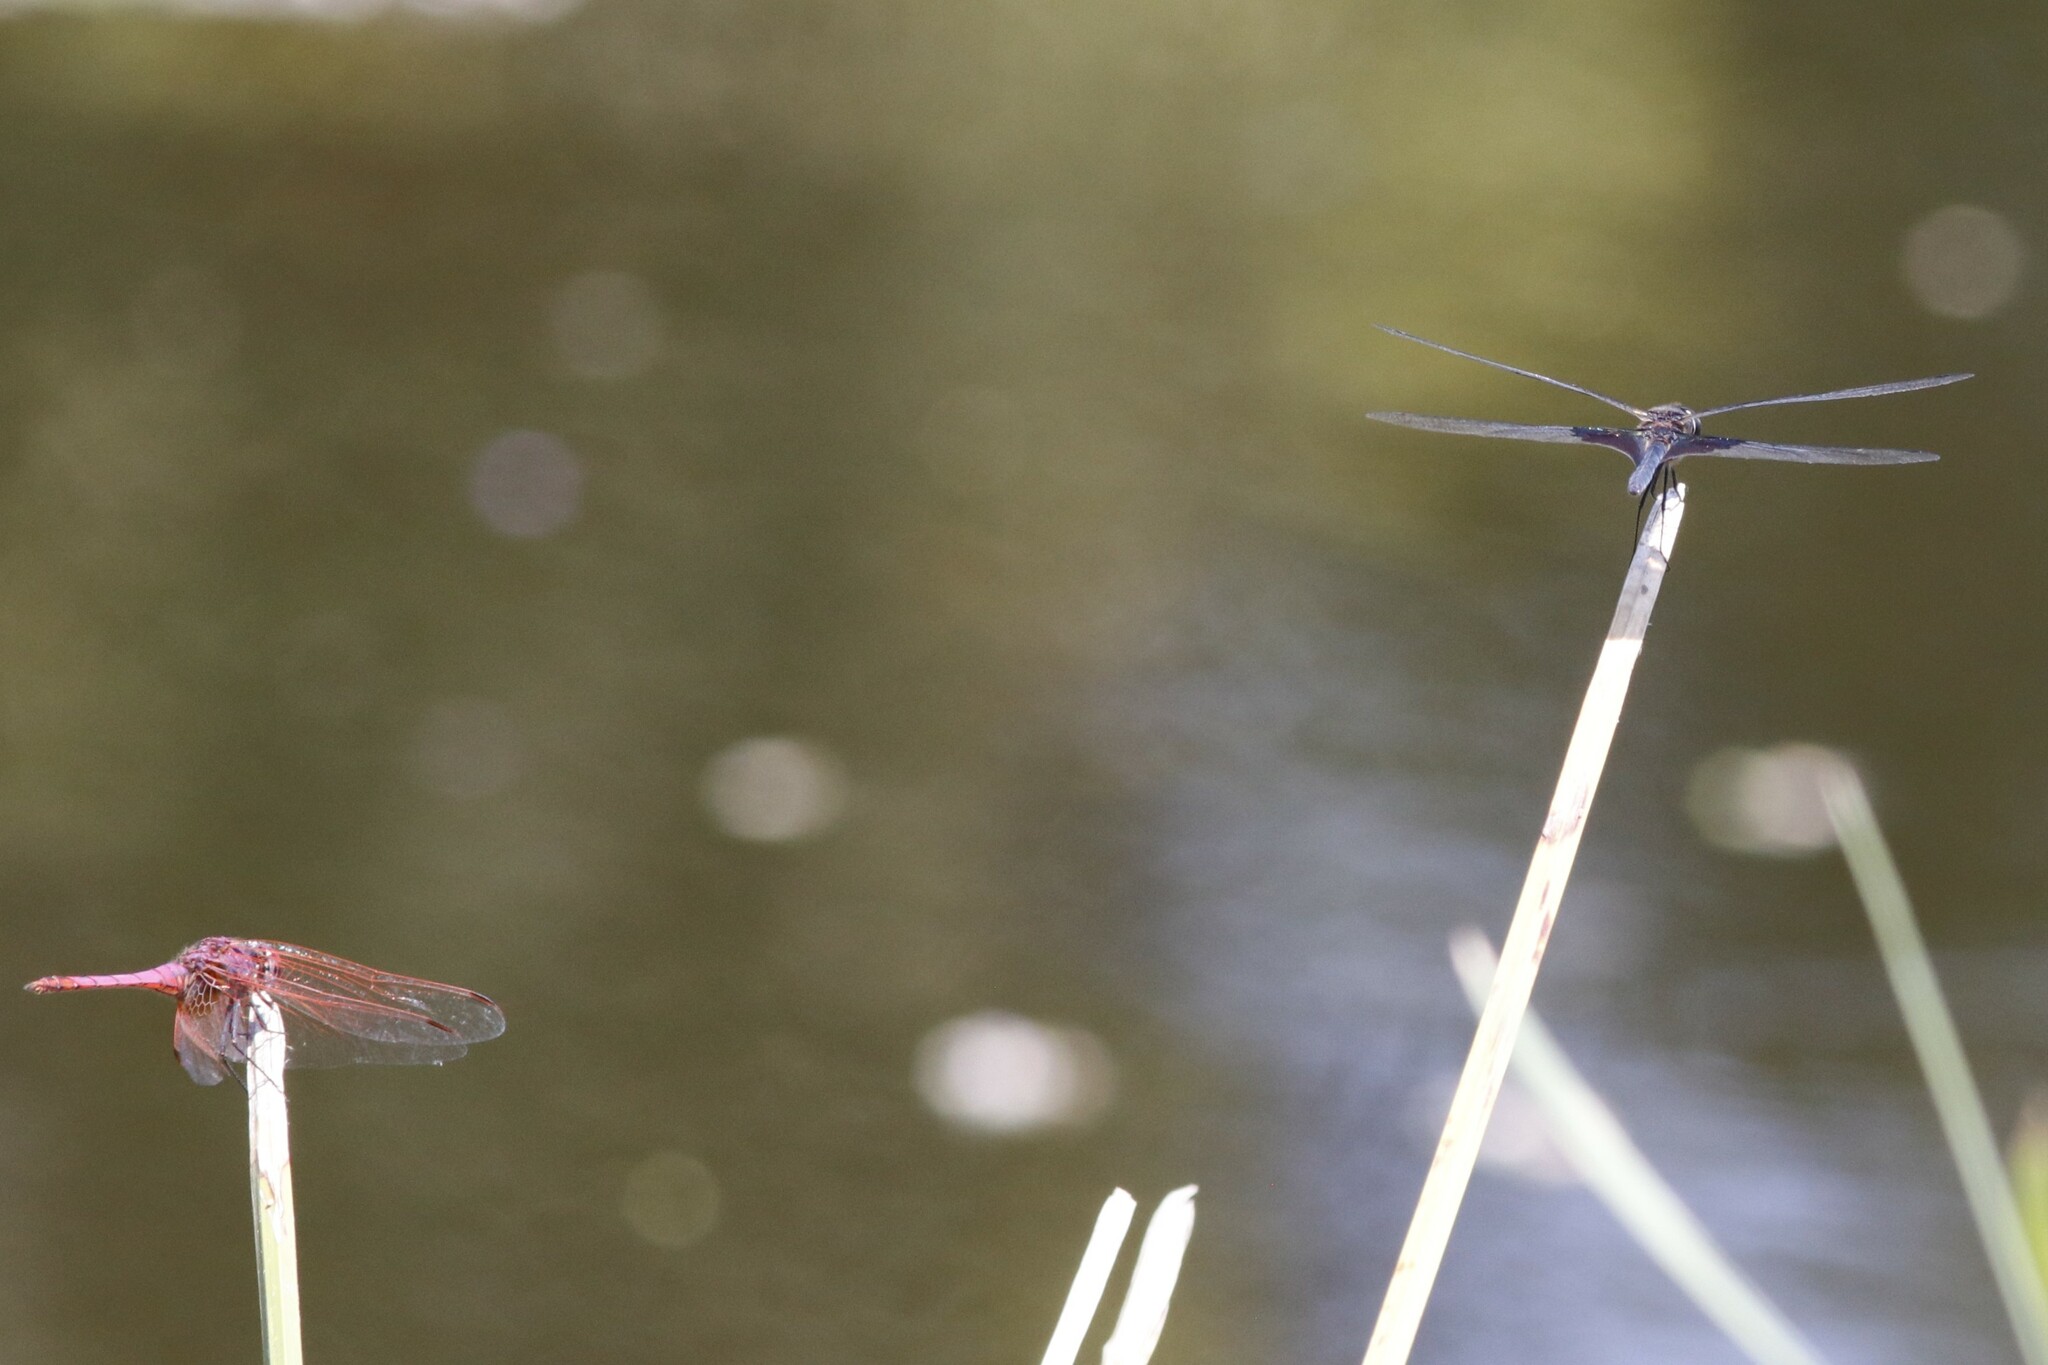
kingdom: Animalia
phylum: Arthropoda
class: Insecta
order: Odonata
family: Libellulidae
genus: Rhyothemis
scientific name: Rhyothemis semihyalina
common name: Phantom flutterer
